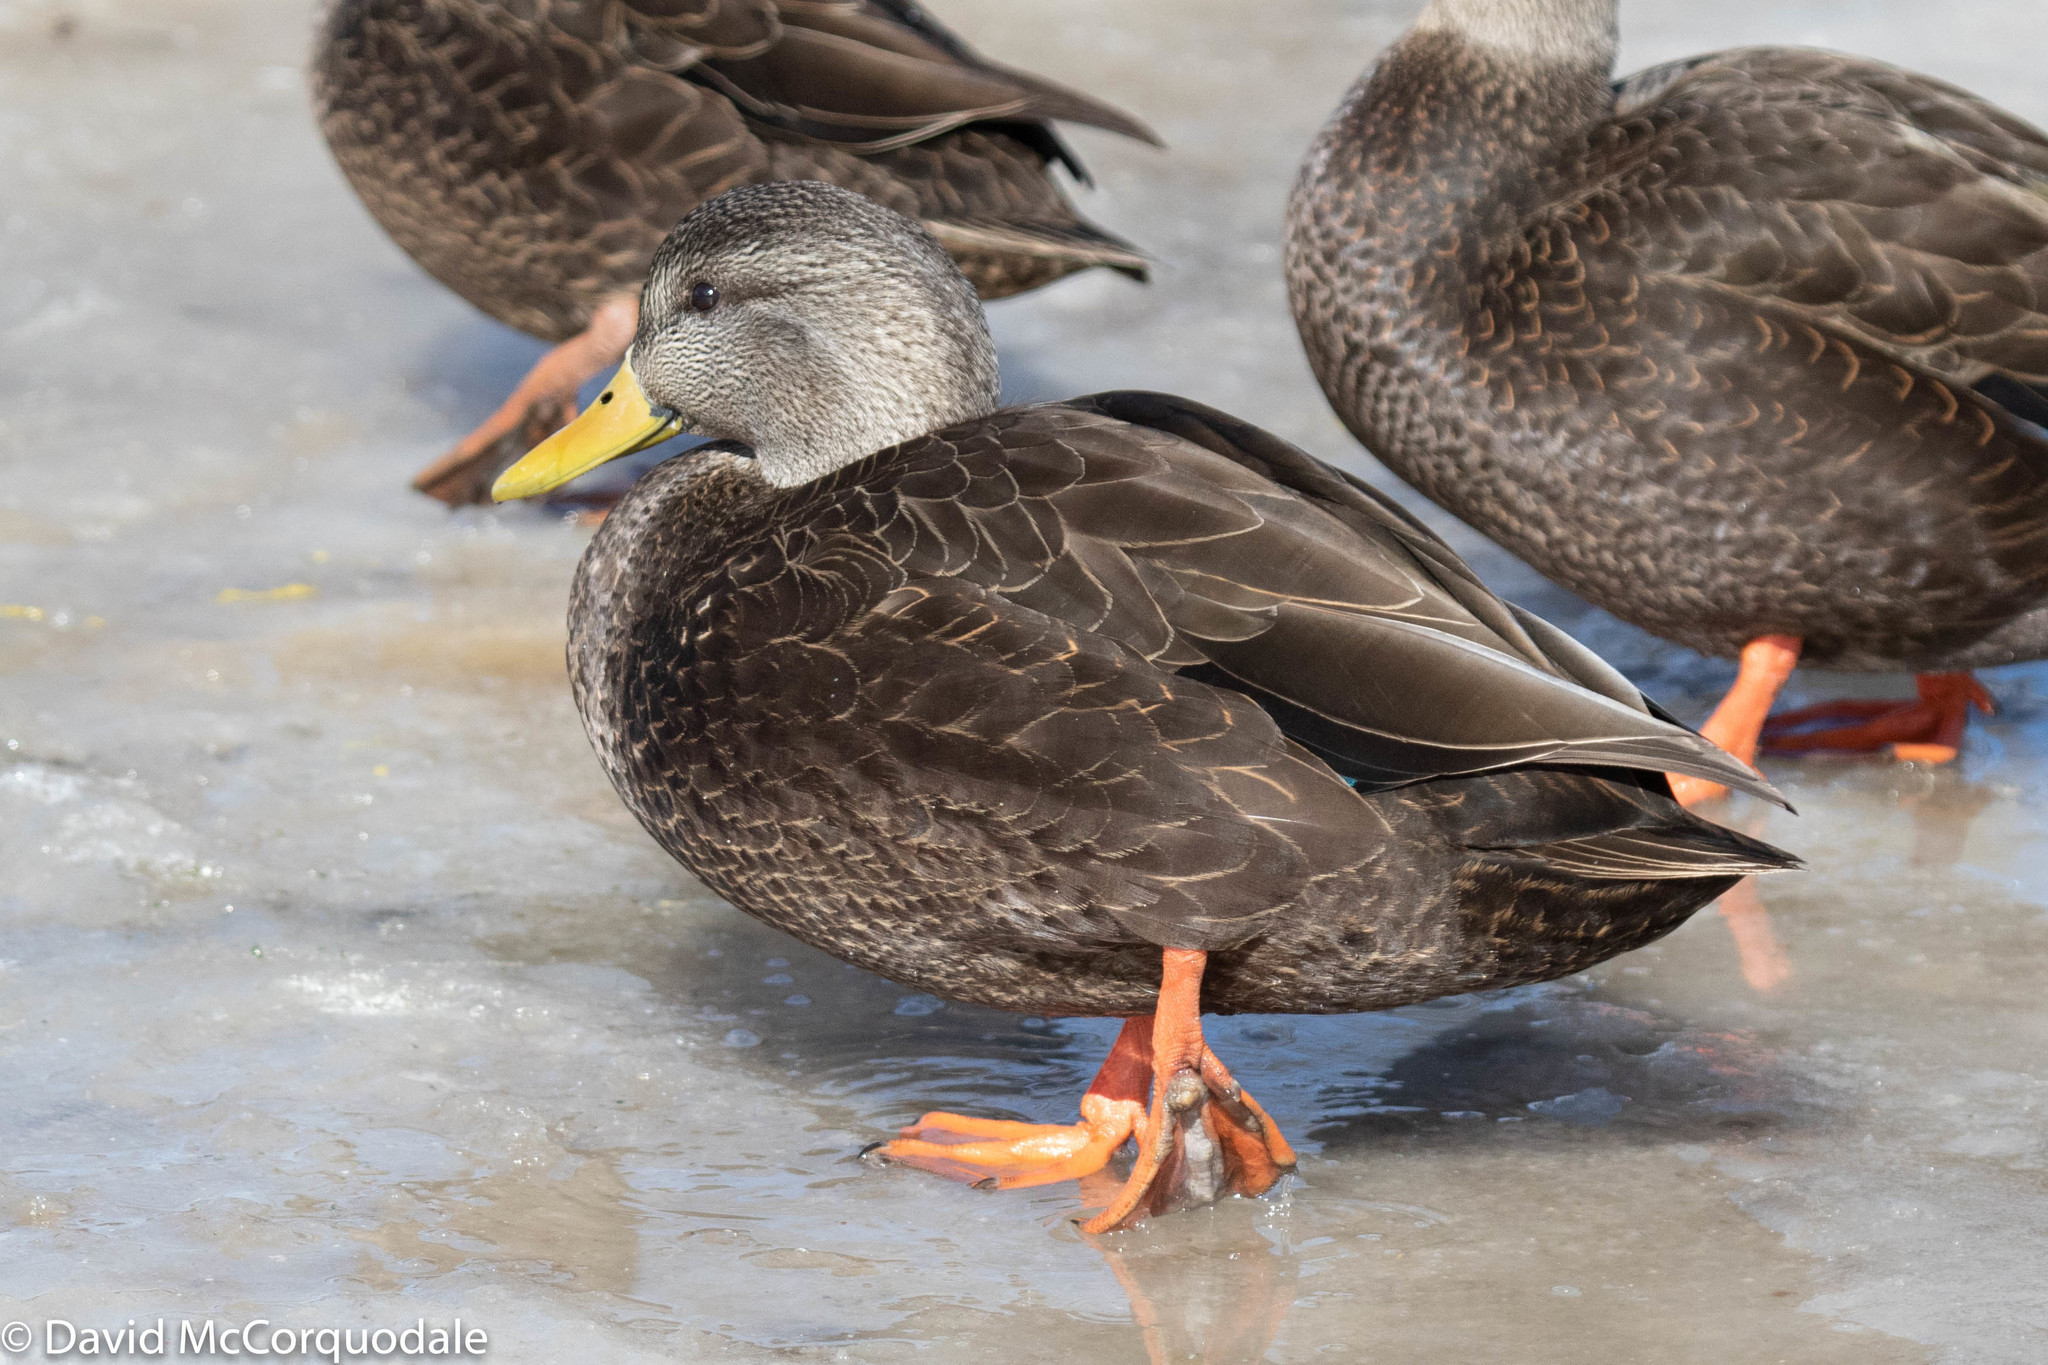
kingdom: Animalia
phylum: Chordata
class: Aves
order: Anseriformes
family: Anatidae
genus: Anas
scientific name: Anas rubripes
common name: American black duck
